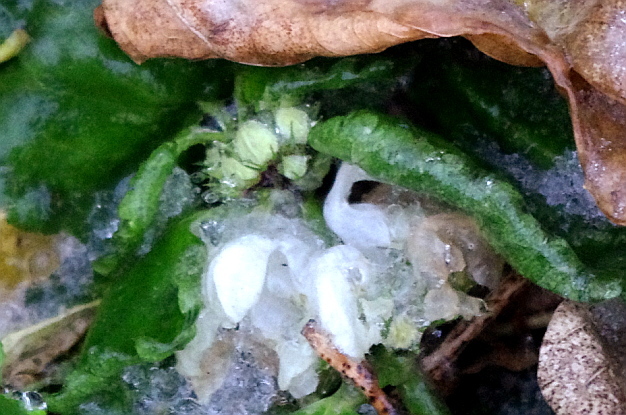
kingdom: Plantae
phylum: Tracheophyta
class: Magnoliopsida
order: Lamiales
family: Lamiaceae
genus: Lamium
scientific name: Lamium album
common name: White dead-nettle
